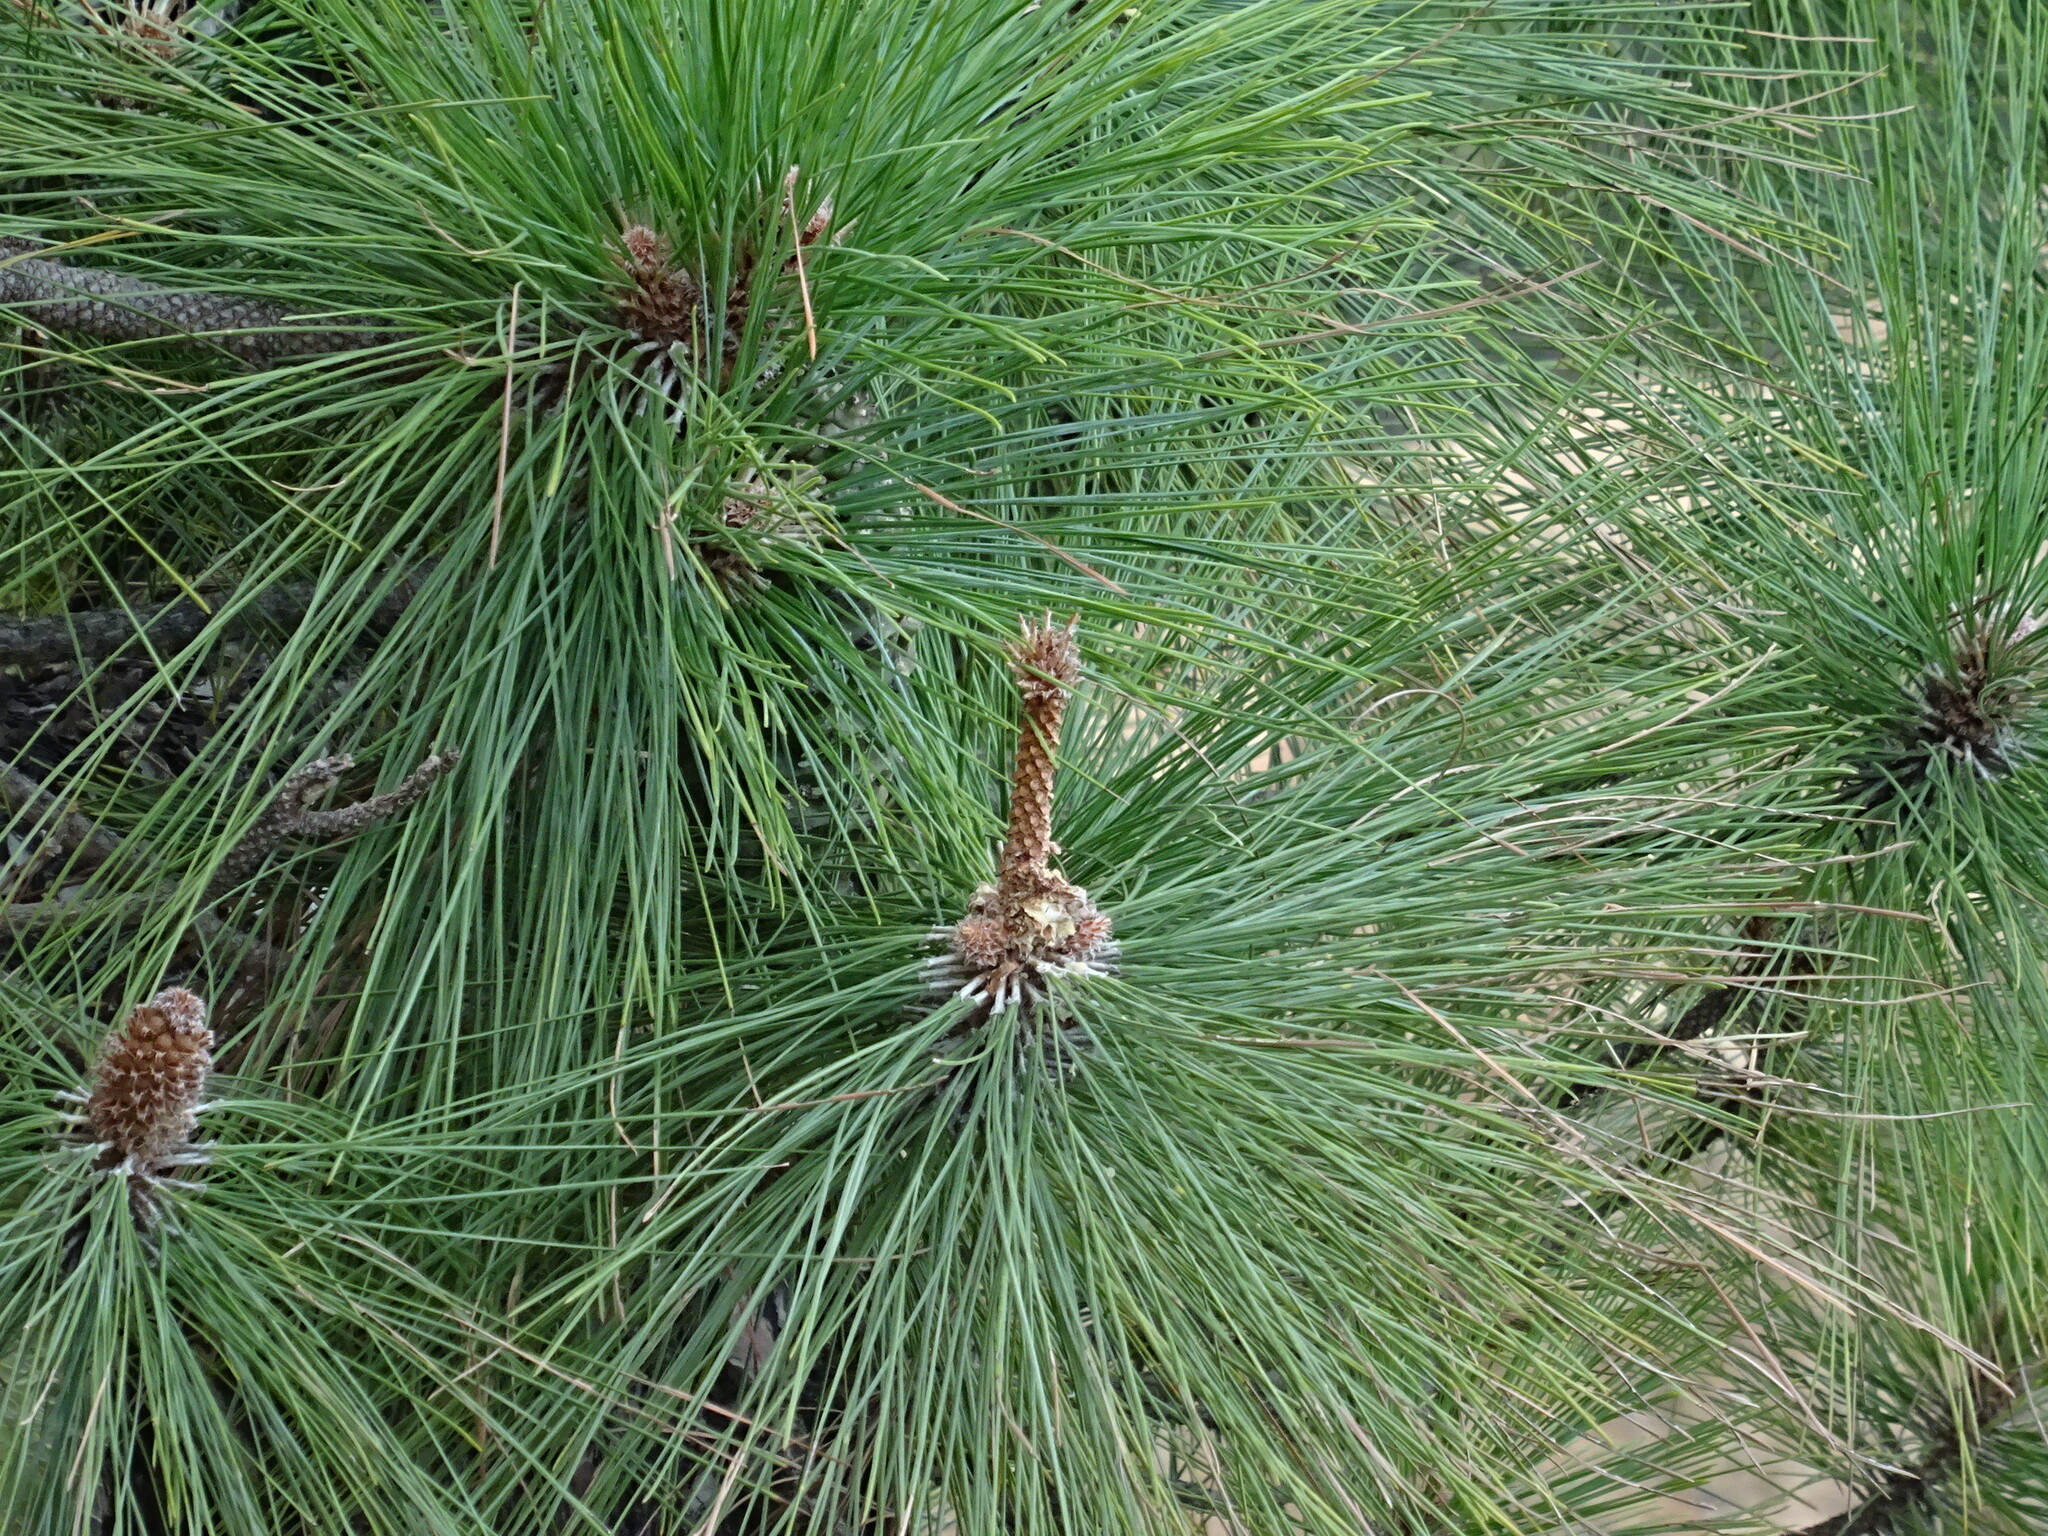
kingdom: Plantae
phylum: Tracheophyta
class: Pinopsida
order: Pinales
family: Pinaceae
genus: Pinus
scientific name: Pinus canariensis
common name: Canary islands pine
